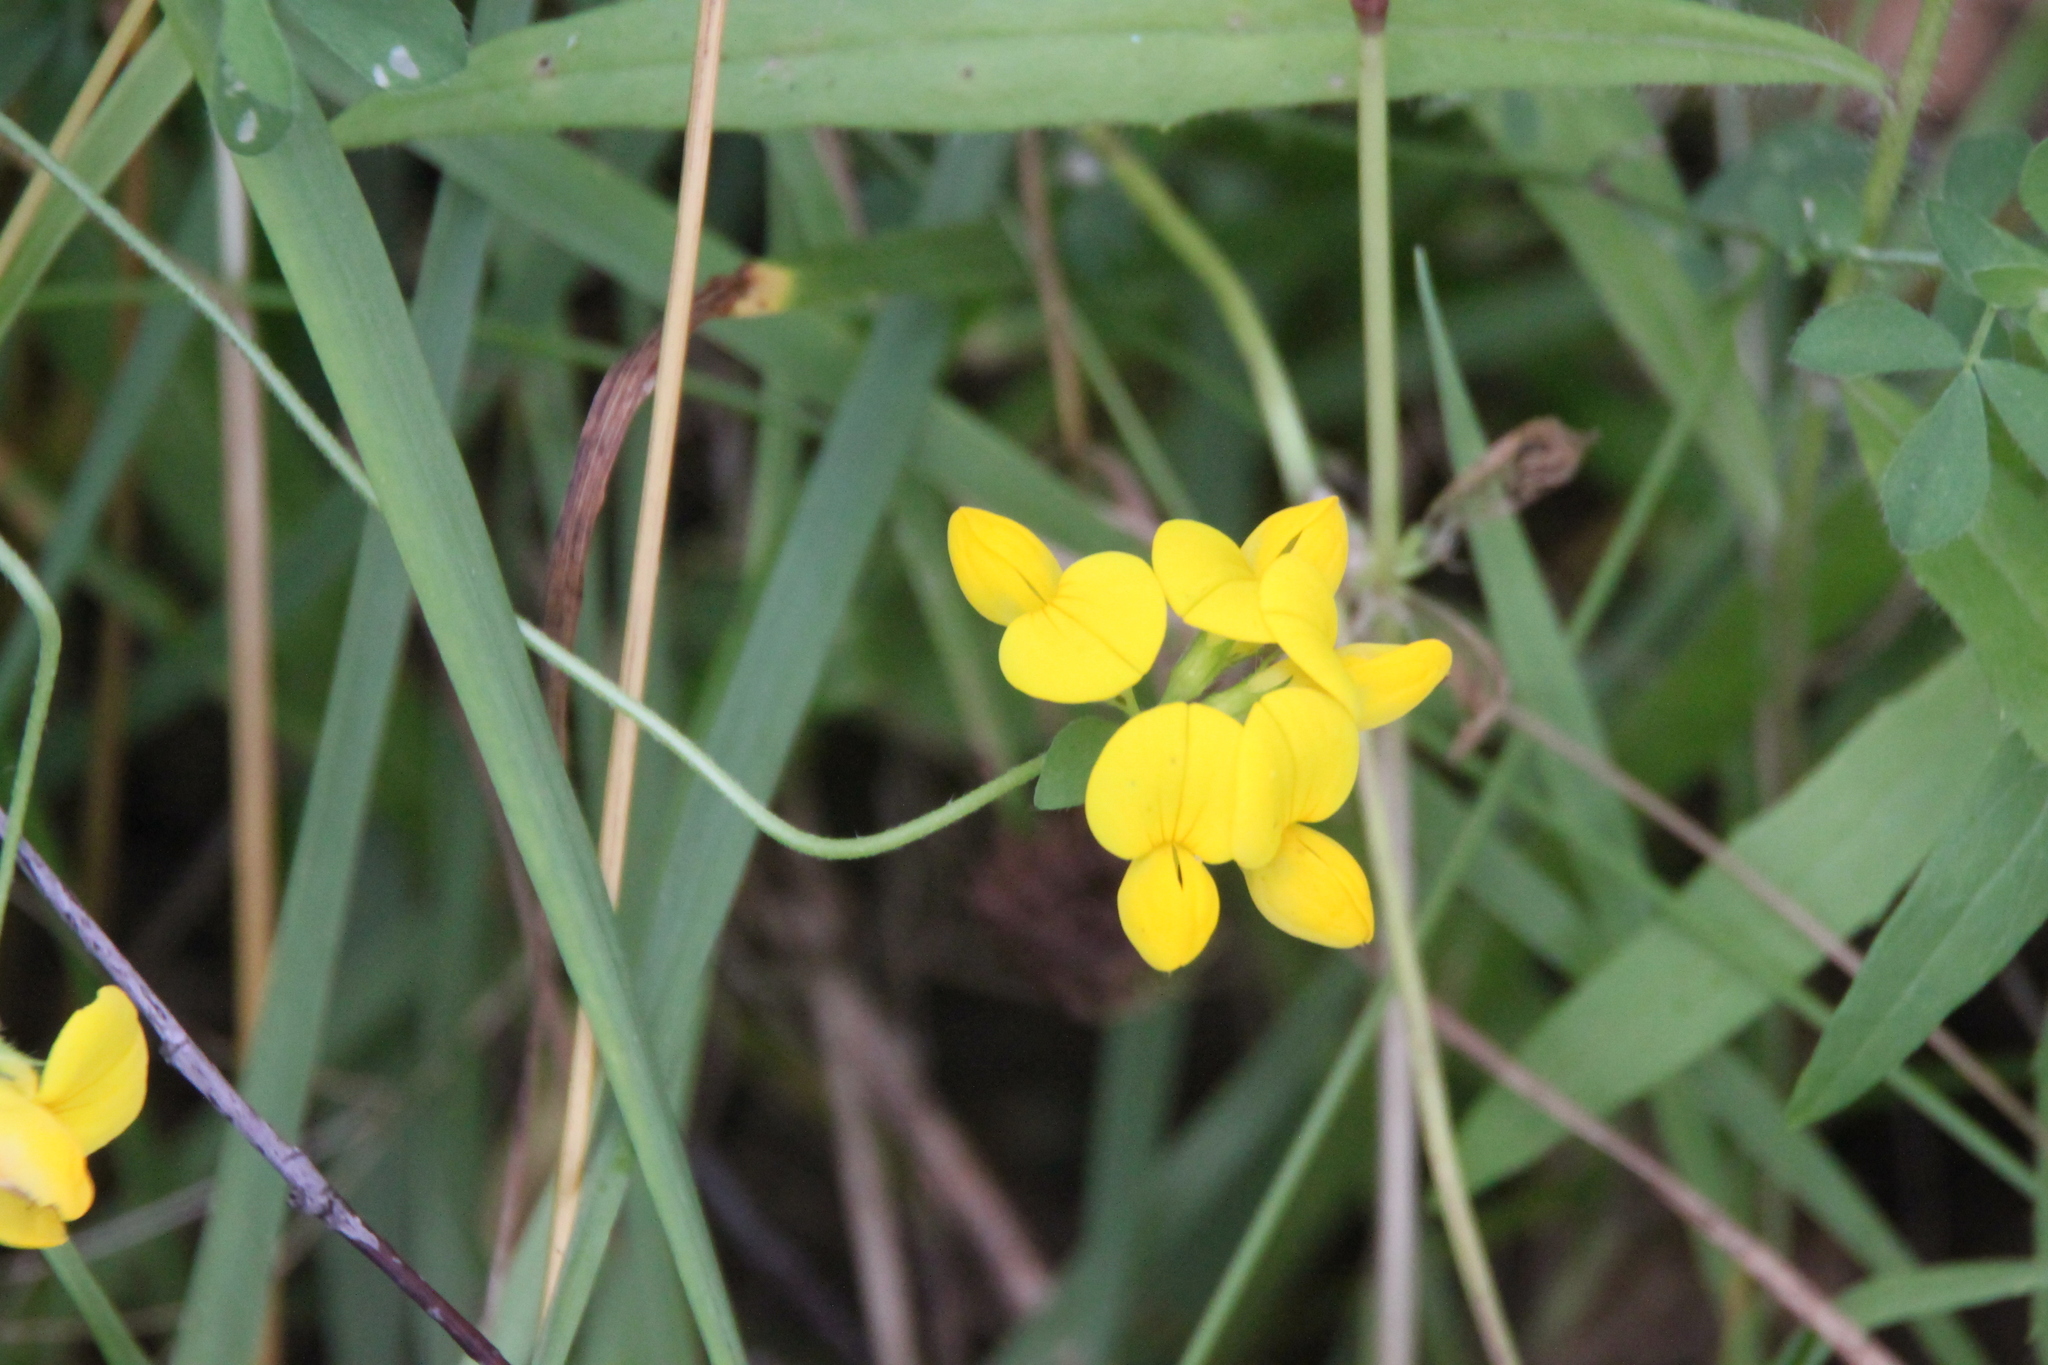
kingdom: Plantae
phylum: Tracheophyta
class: Magnoliopsida
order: Fabales
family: Fabaceae
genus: Lotus
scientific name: Lotus corniculatus
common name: Common bird's-foot-trefoil
